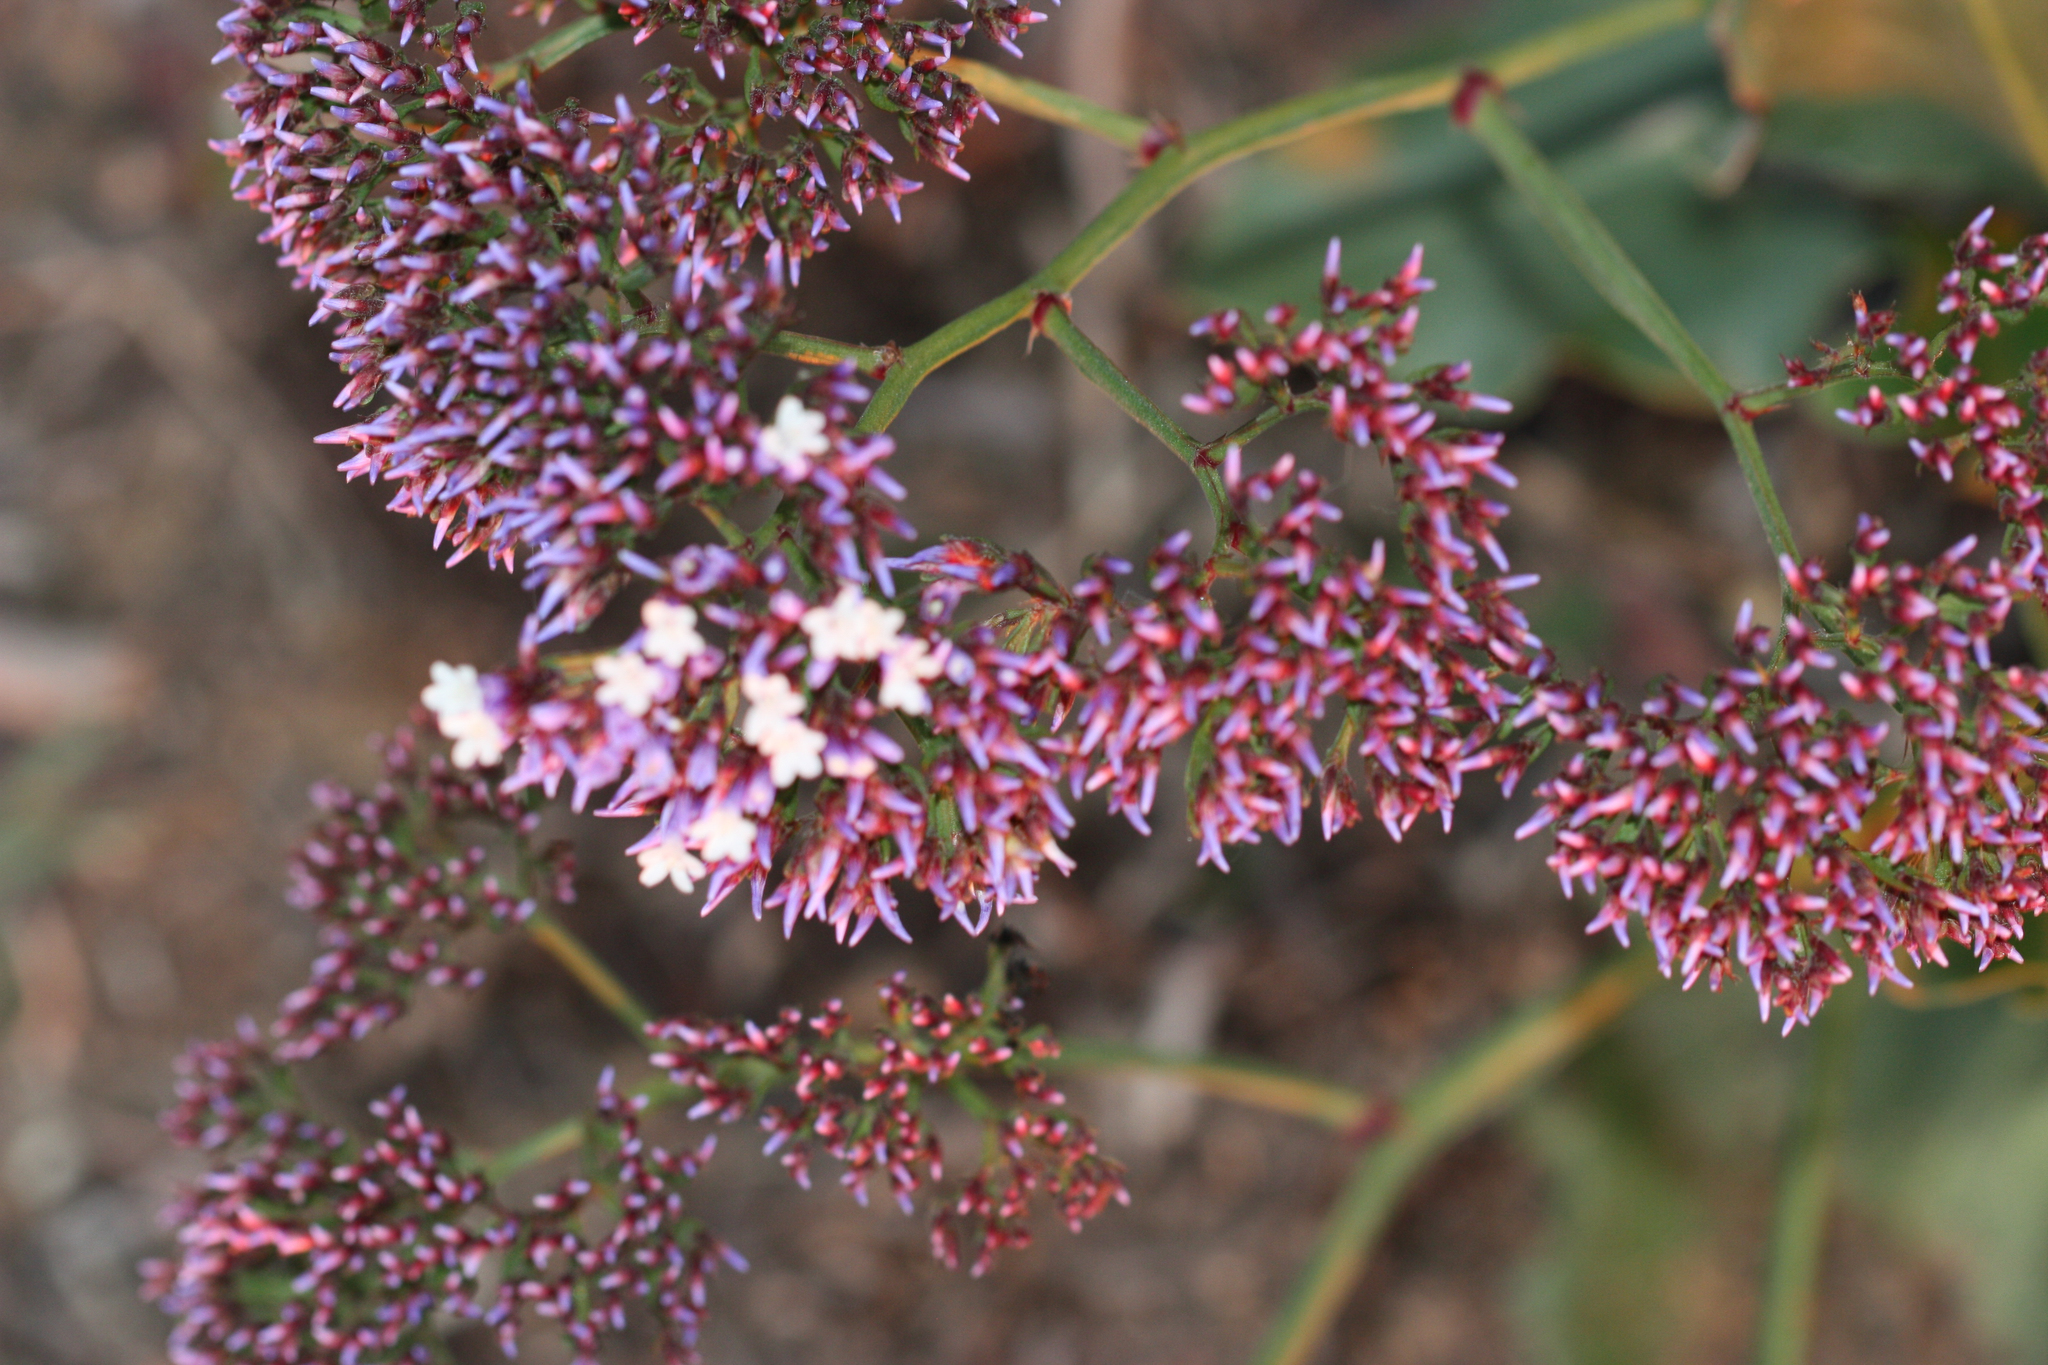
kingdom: Plantae
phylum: Tracheophyta
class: Magnoliopsida
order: Caryophyllales
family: Plumbaginaceae
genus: Limonium
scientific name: Limonium perezii
